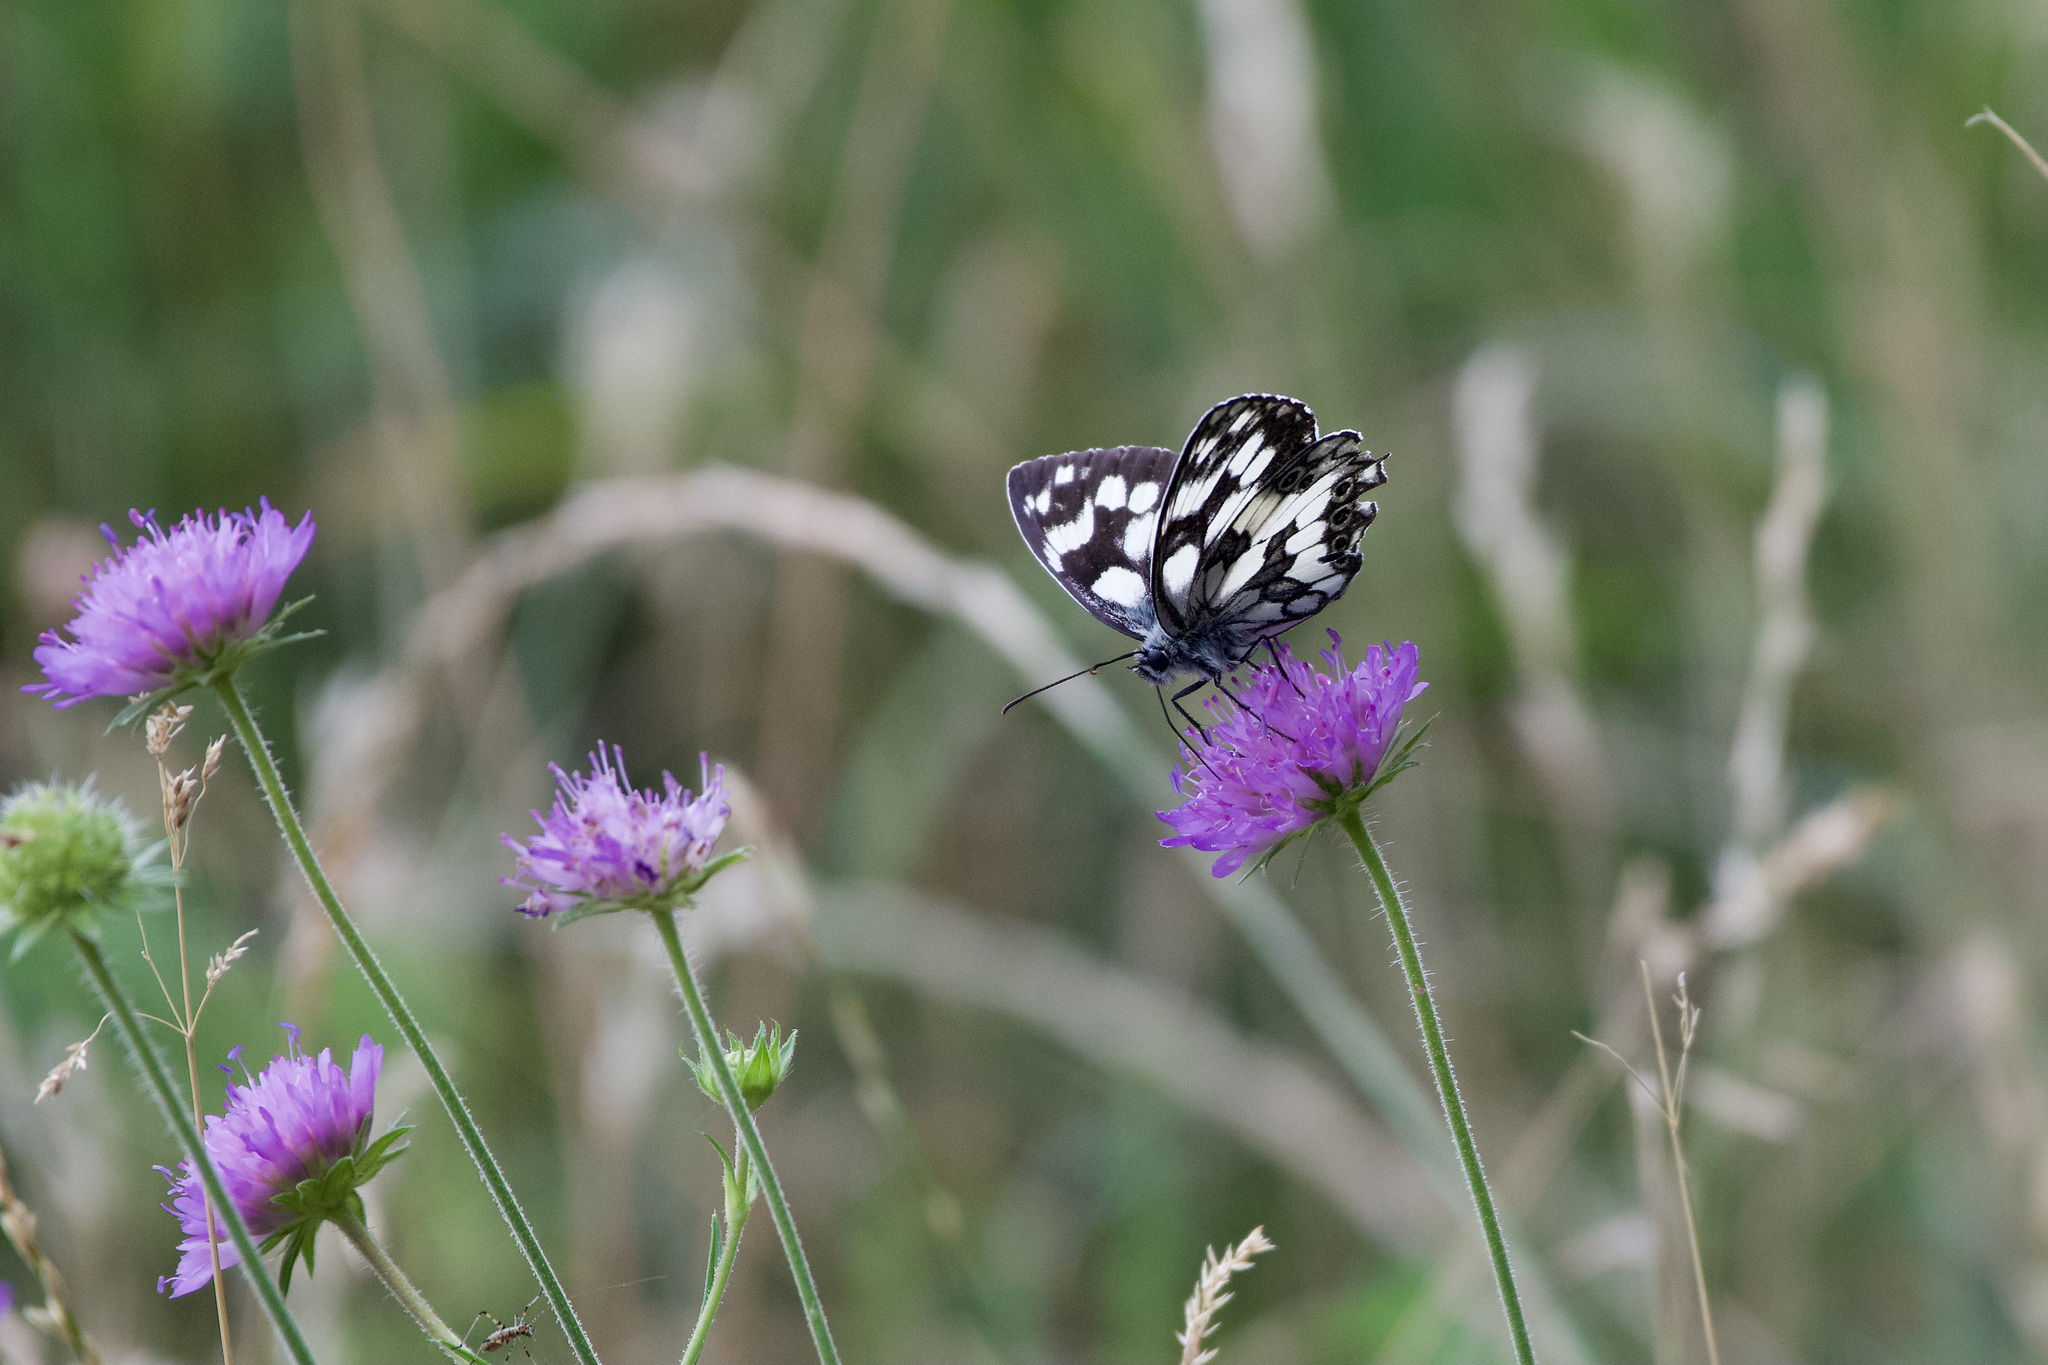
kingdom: Animalia
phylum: Arthropoda
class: Insecta
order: Lepidoptera
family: Nymphalidae
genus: Melanargia
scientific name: Melanargia galathea
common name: Marbled white
